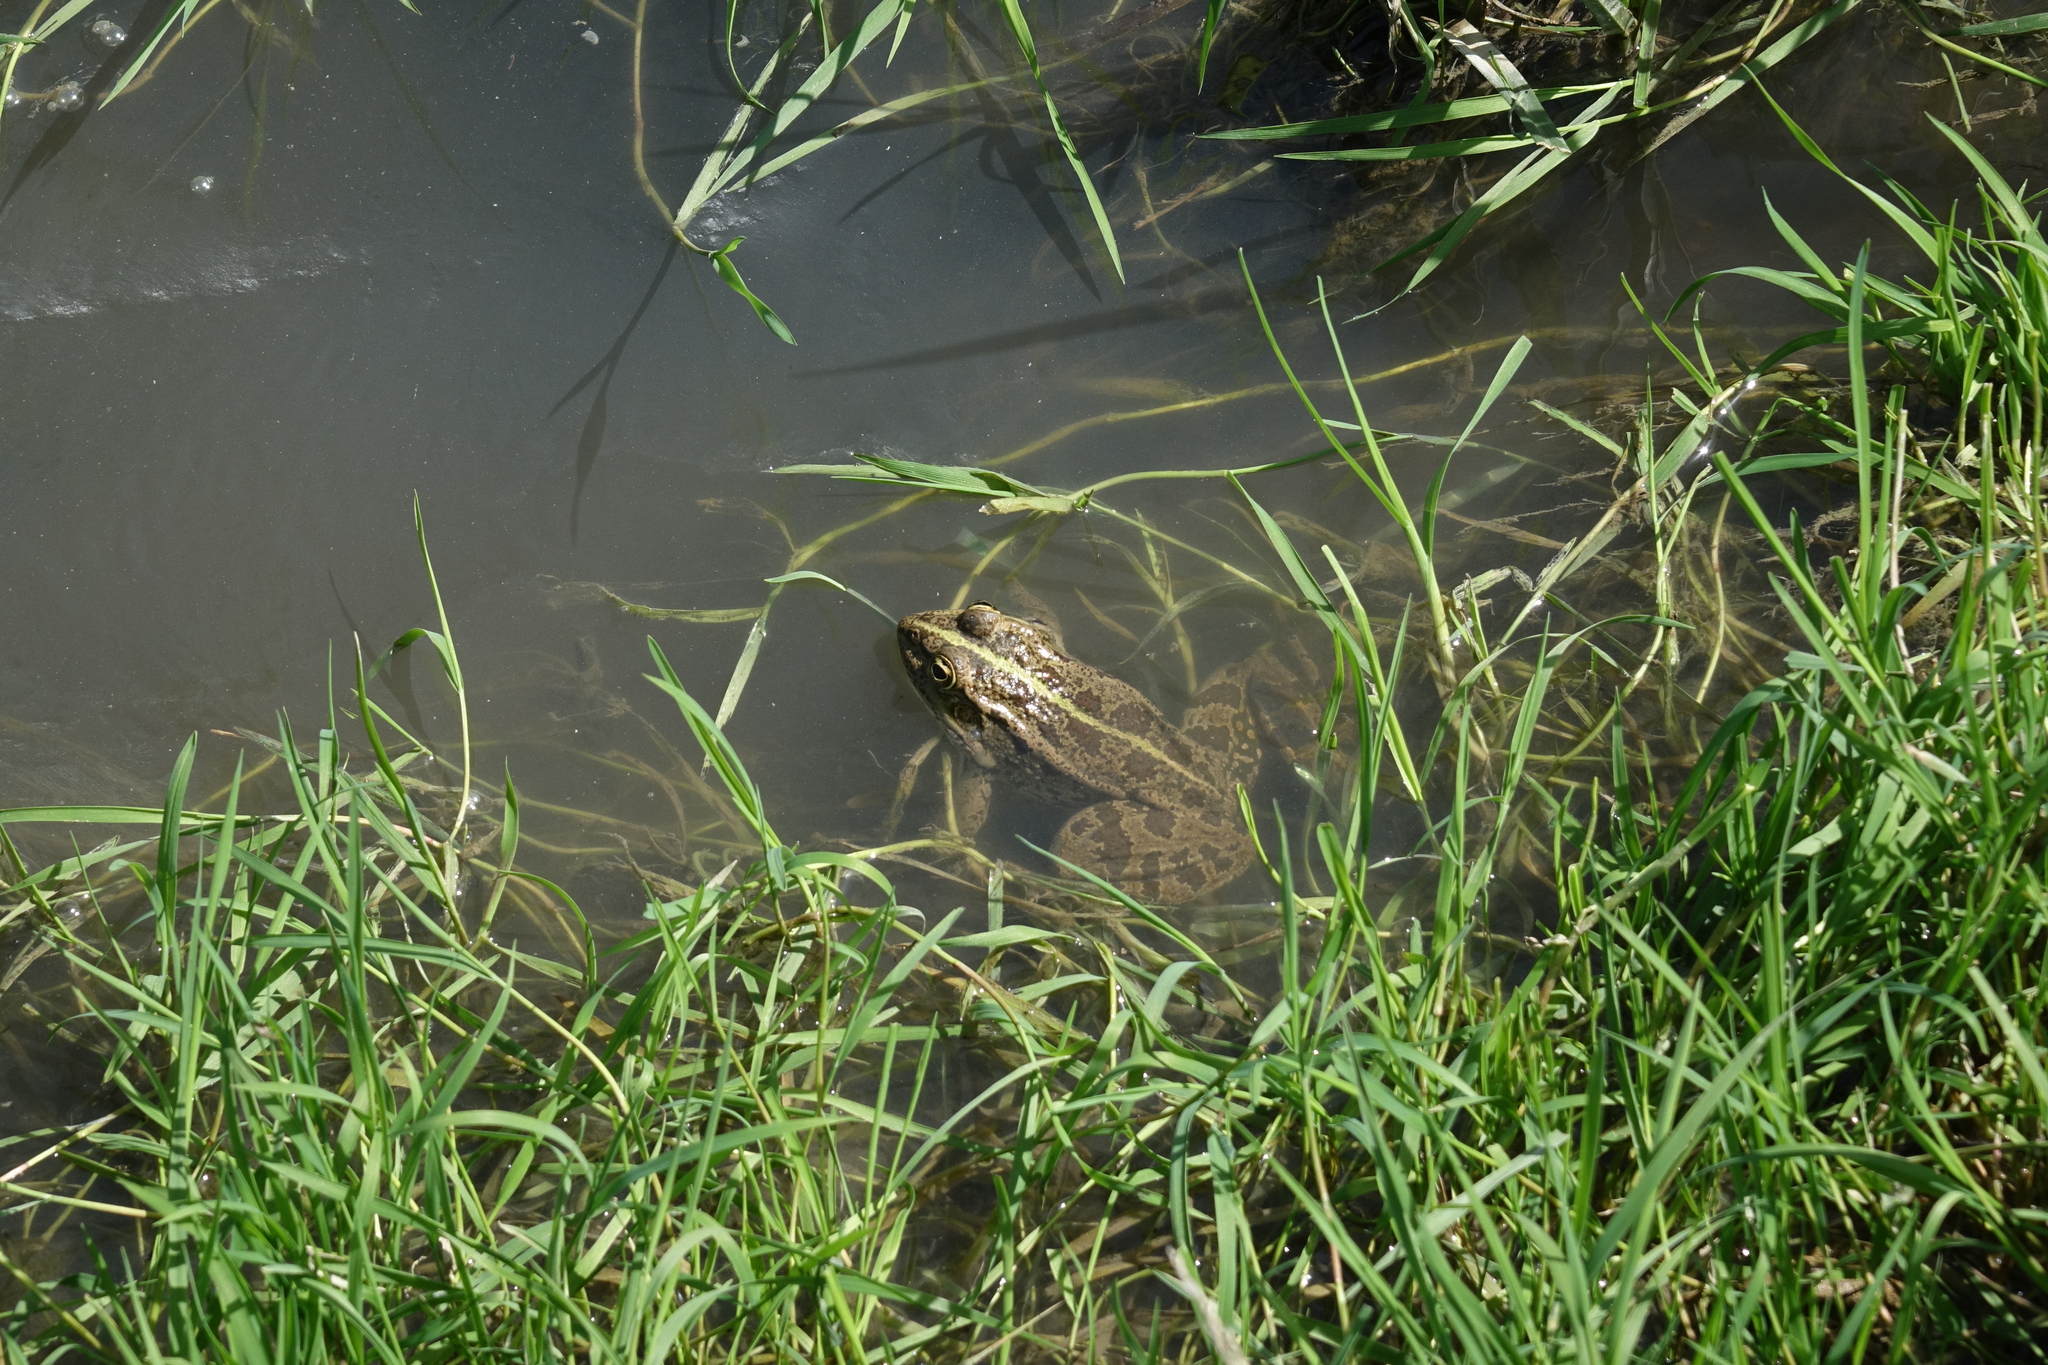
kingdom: Animalia
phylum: Chordata
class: Amphibia
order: Anura
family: Ranidae
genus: Pelophylax
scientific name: Pelophylax ridibundus
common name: Marsh frog
